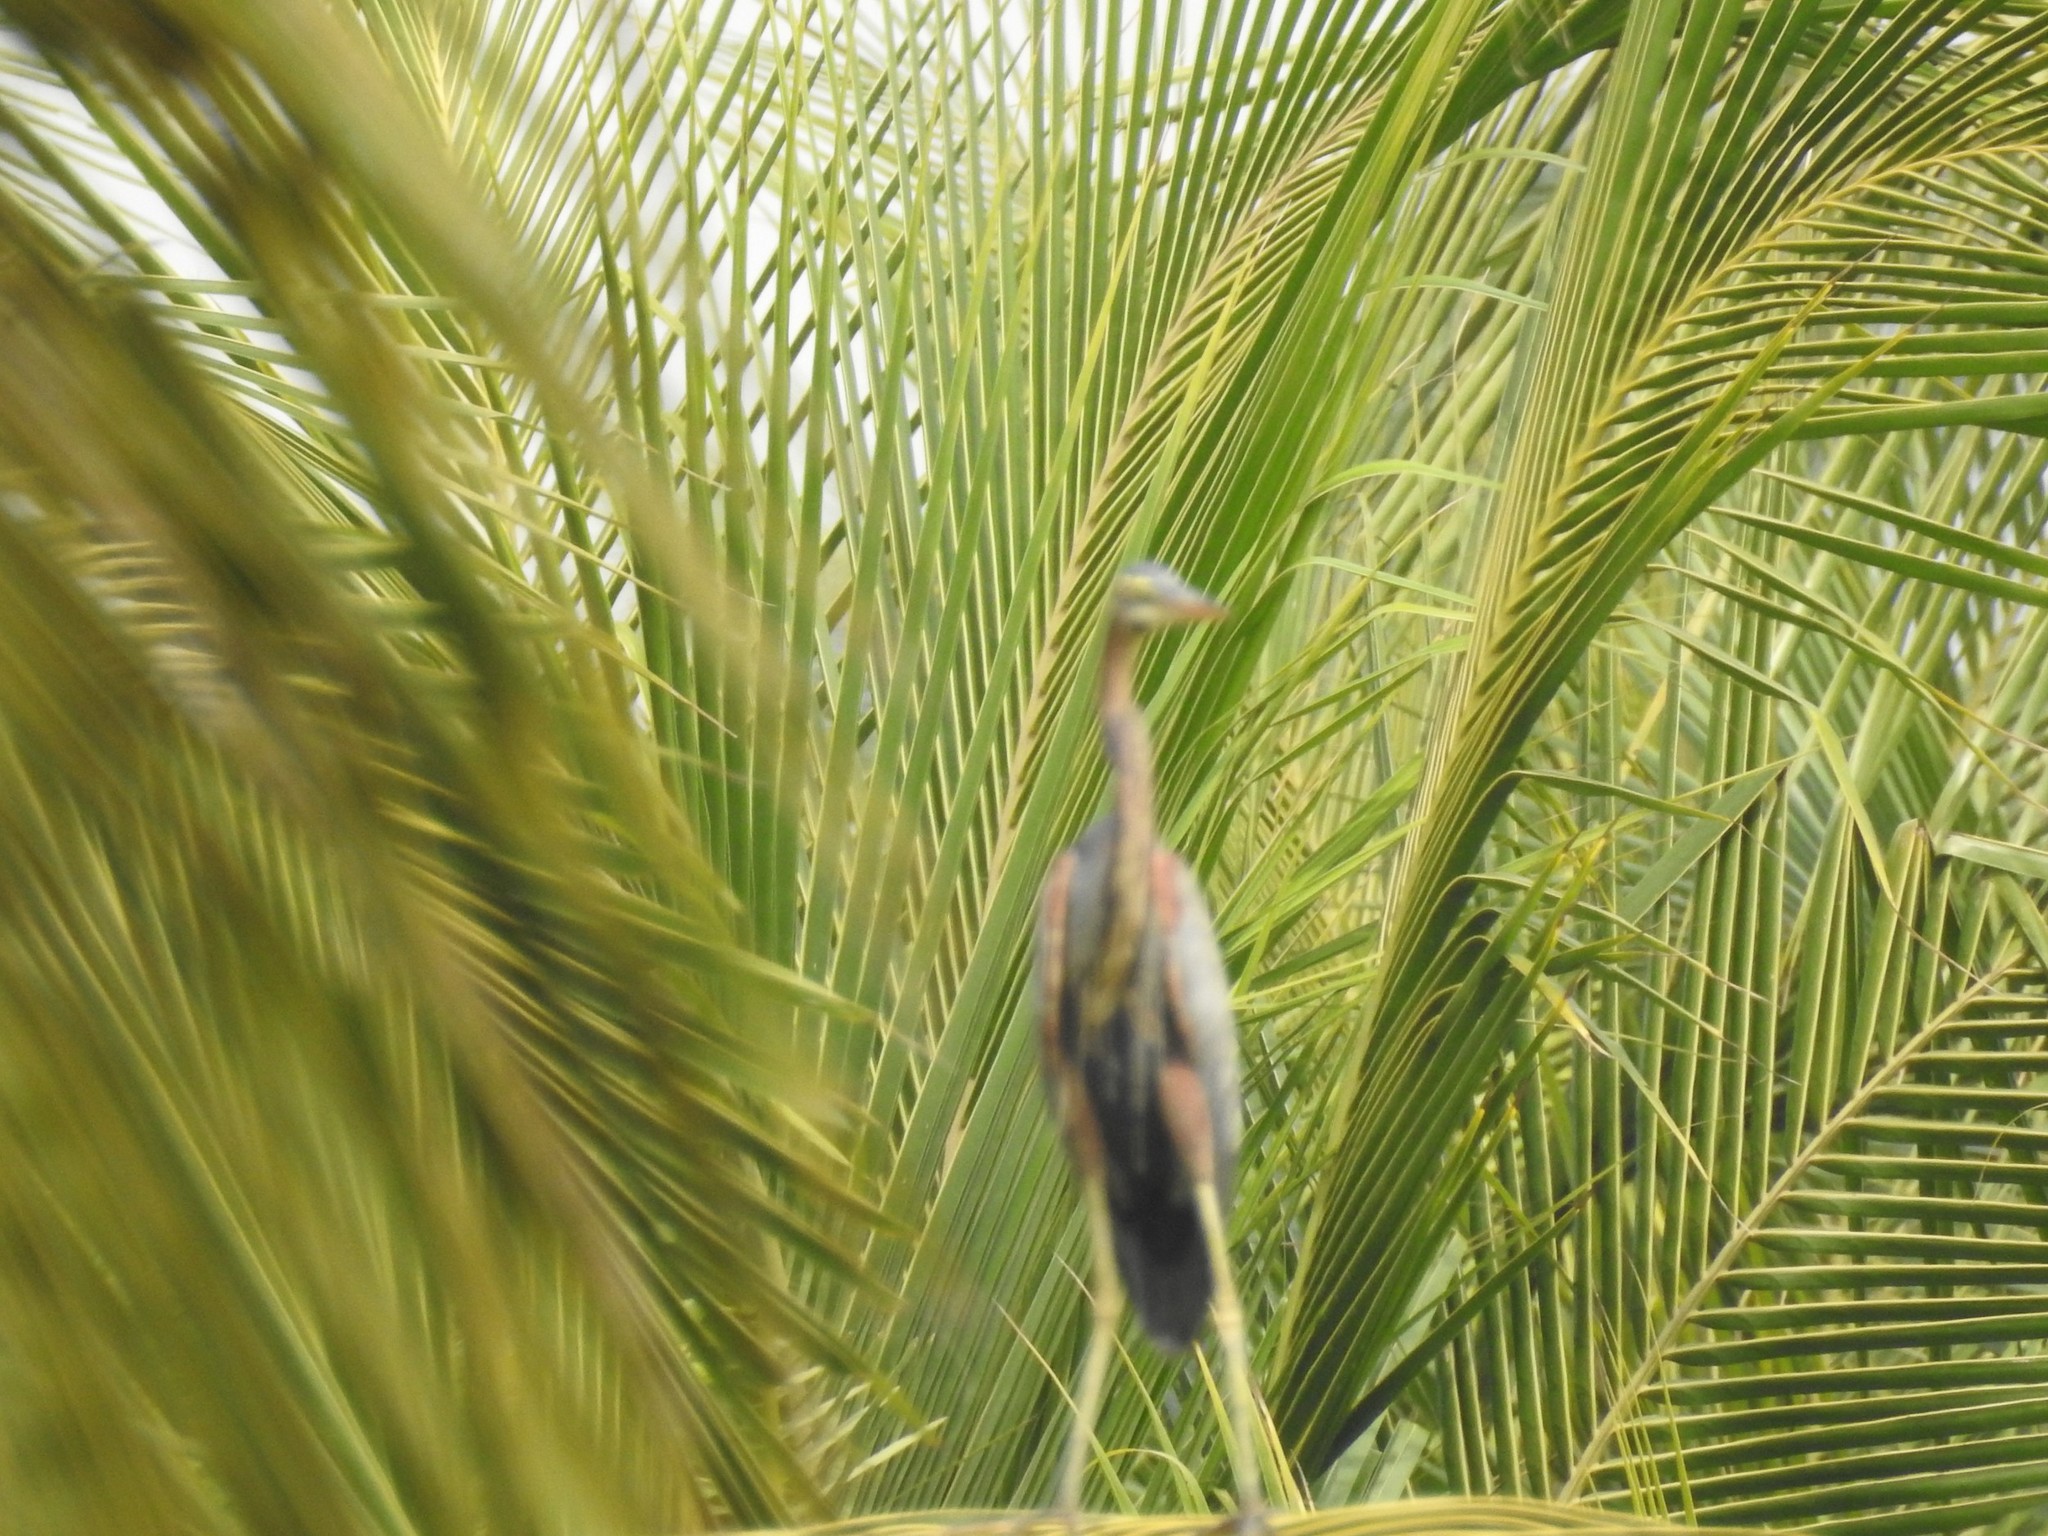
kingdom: Animalia
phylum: Chordata
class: Aves
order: Pelecaniformes
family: Ardeidae
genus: Ardea
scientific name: Ardea purpurea
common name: Purple heron
